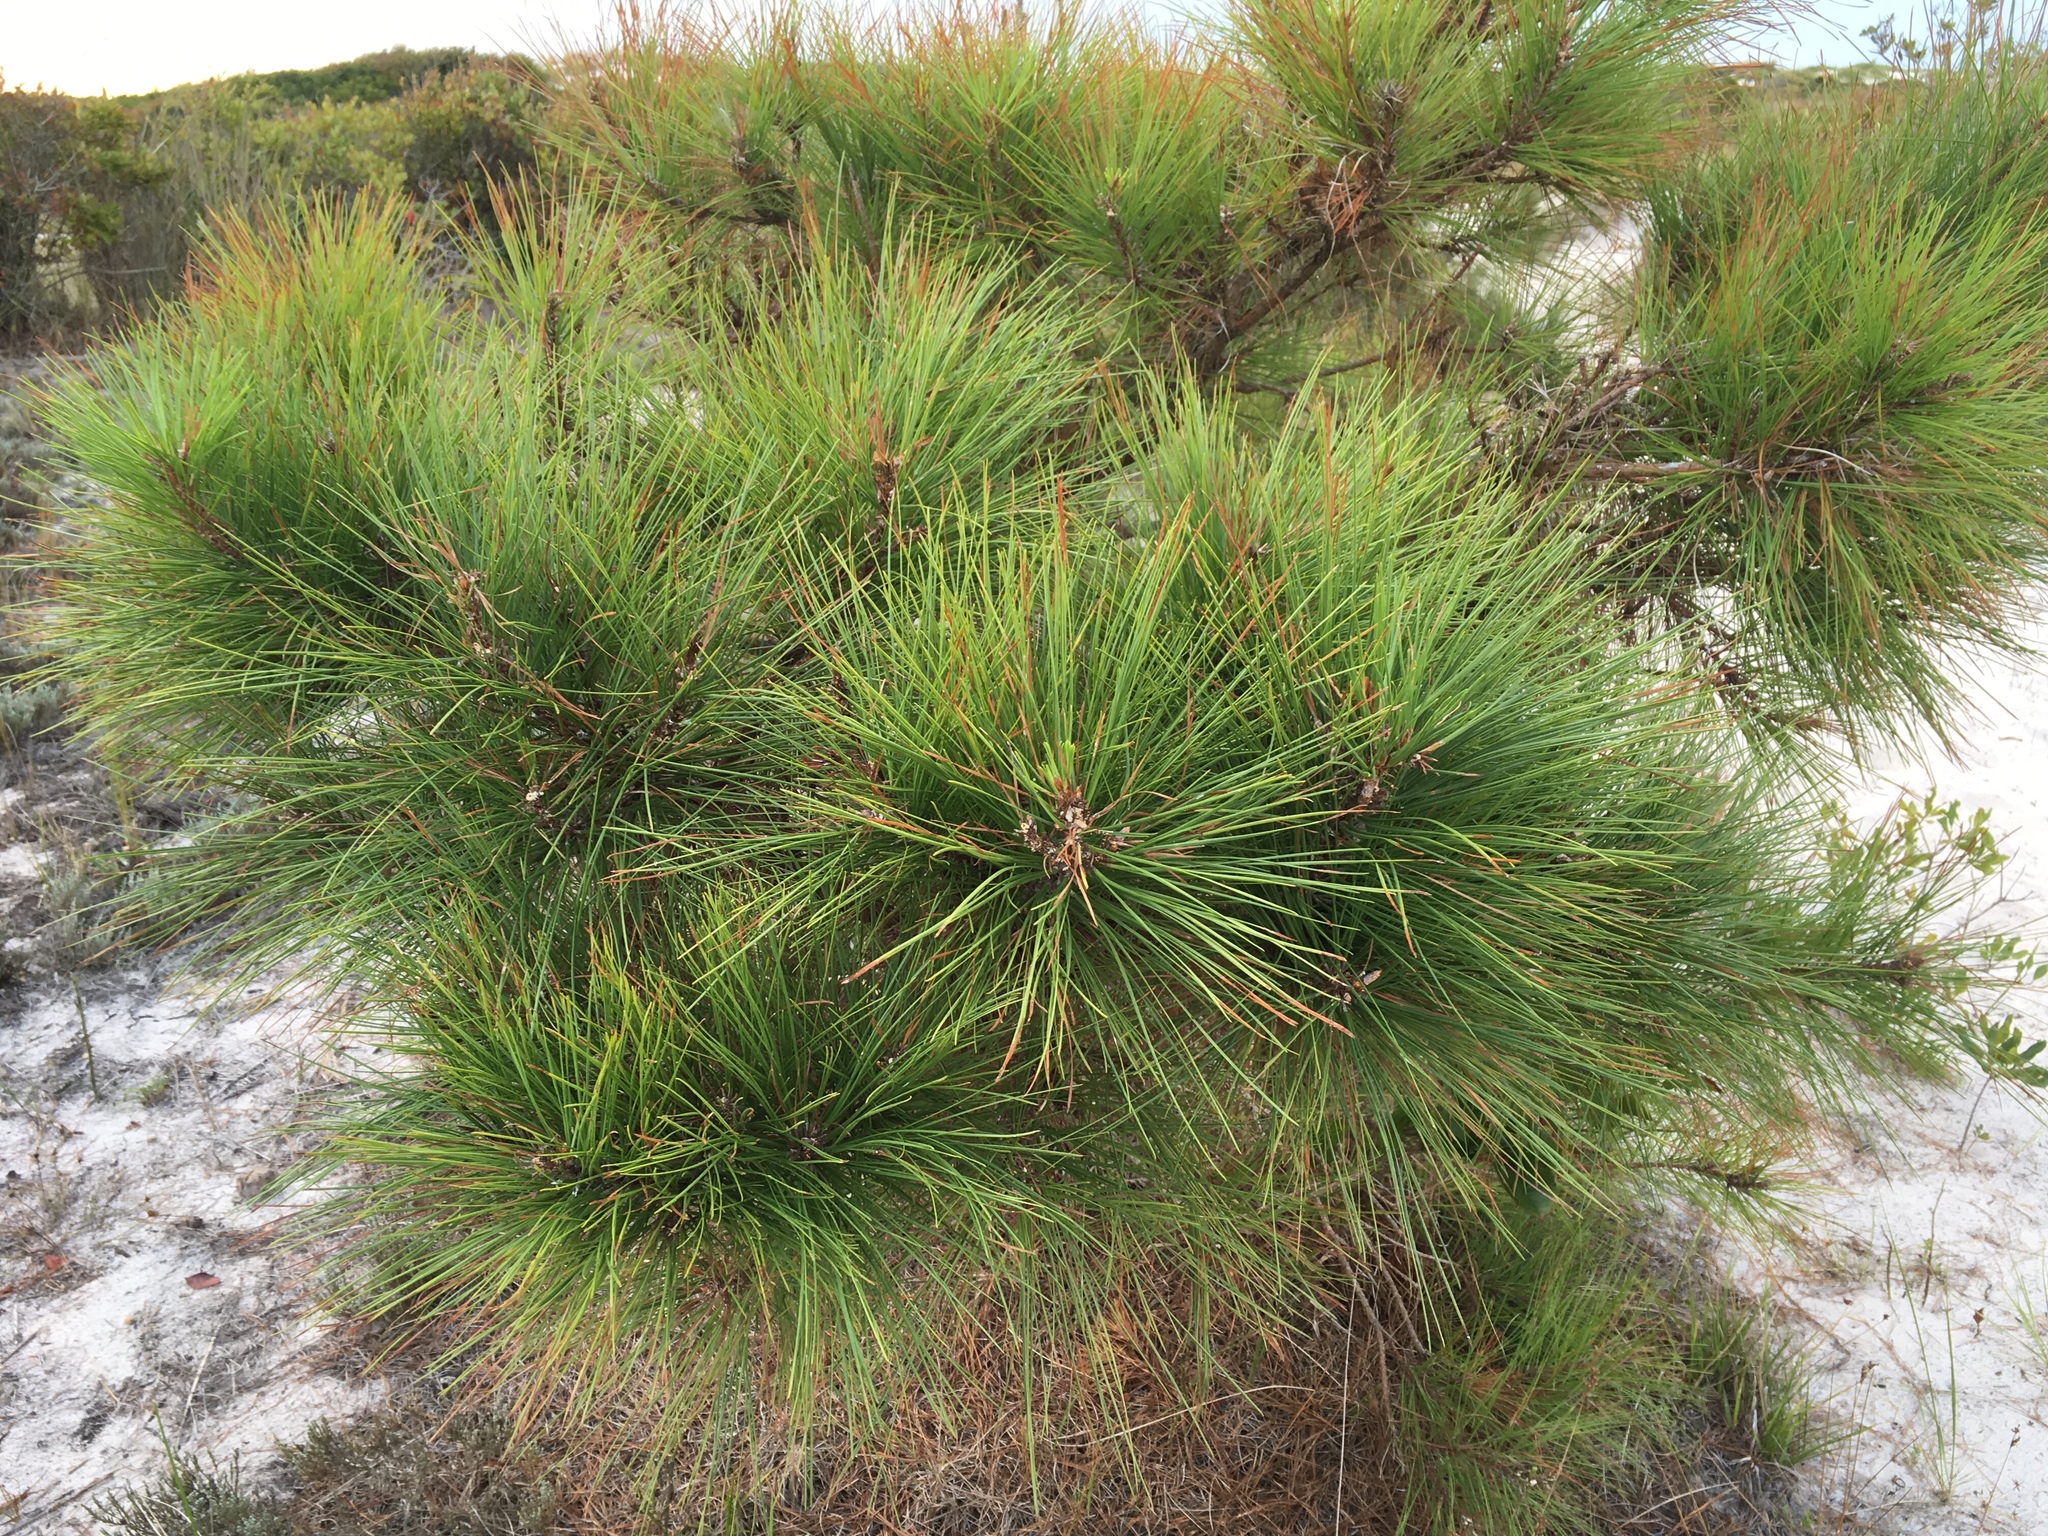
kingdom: Plantae
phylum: Tracheophyta
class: Pinopsida
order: Pinales
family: Pinaceae
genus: Pinus
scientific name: Pinus taeda
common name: Loblolly pine
